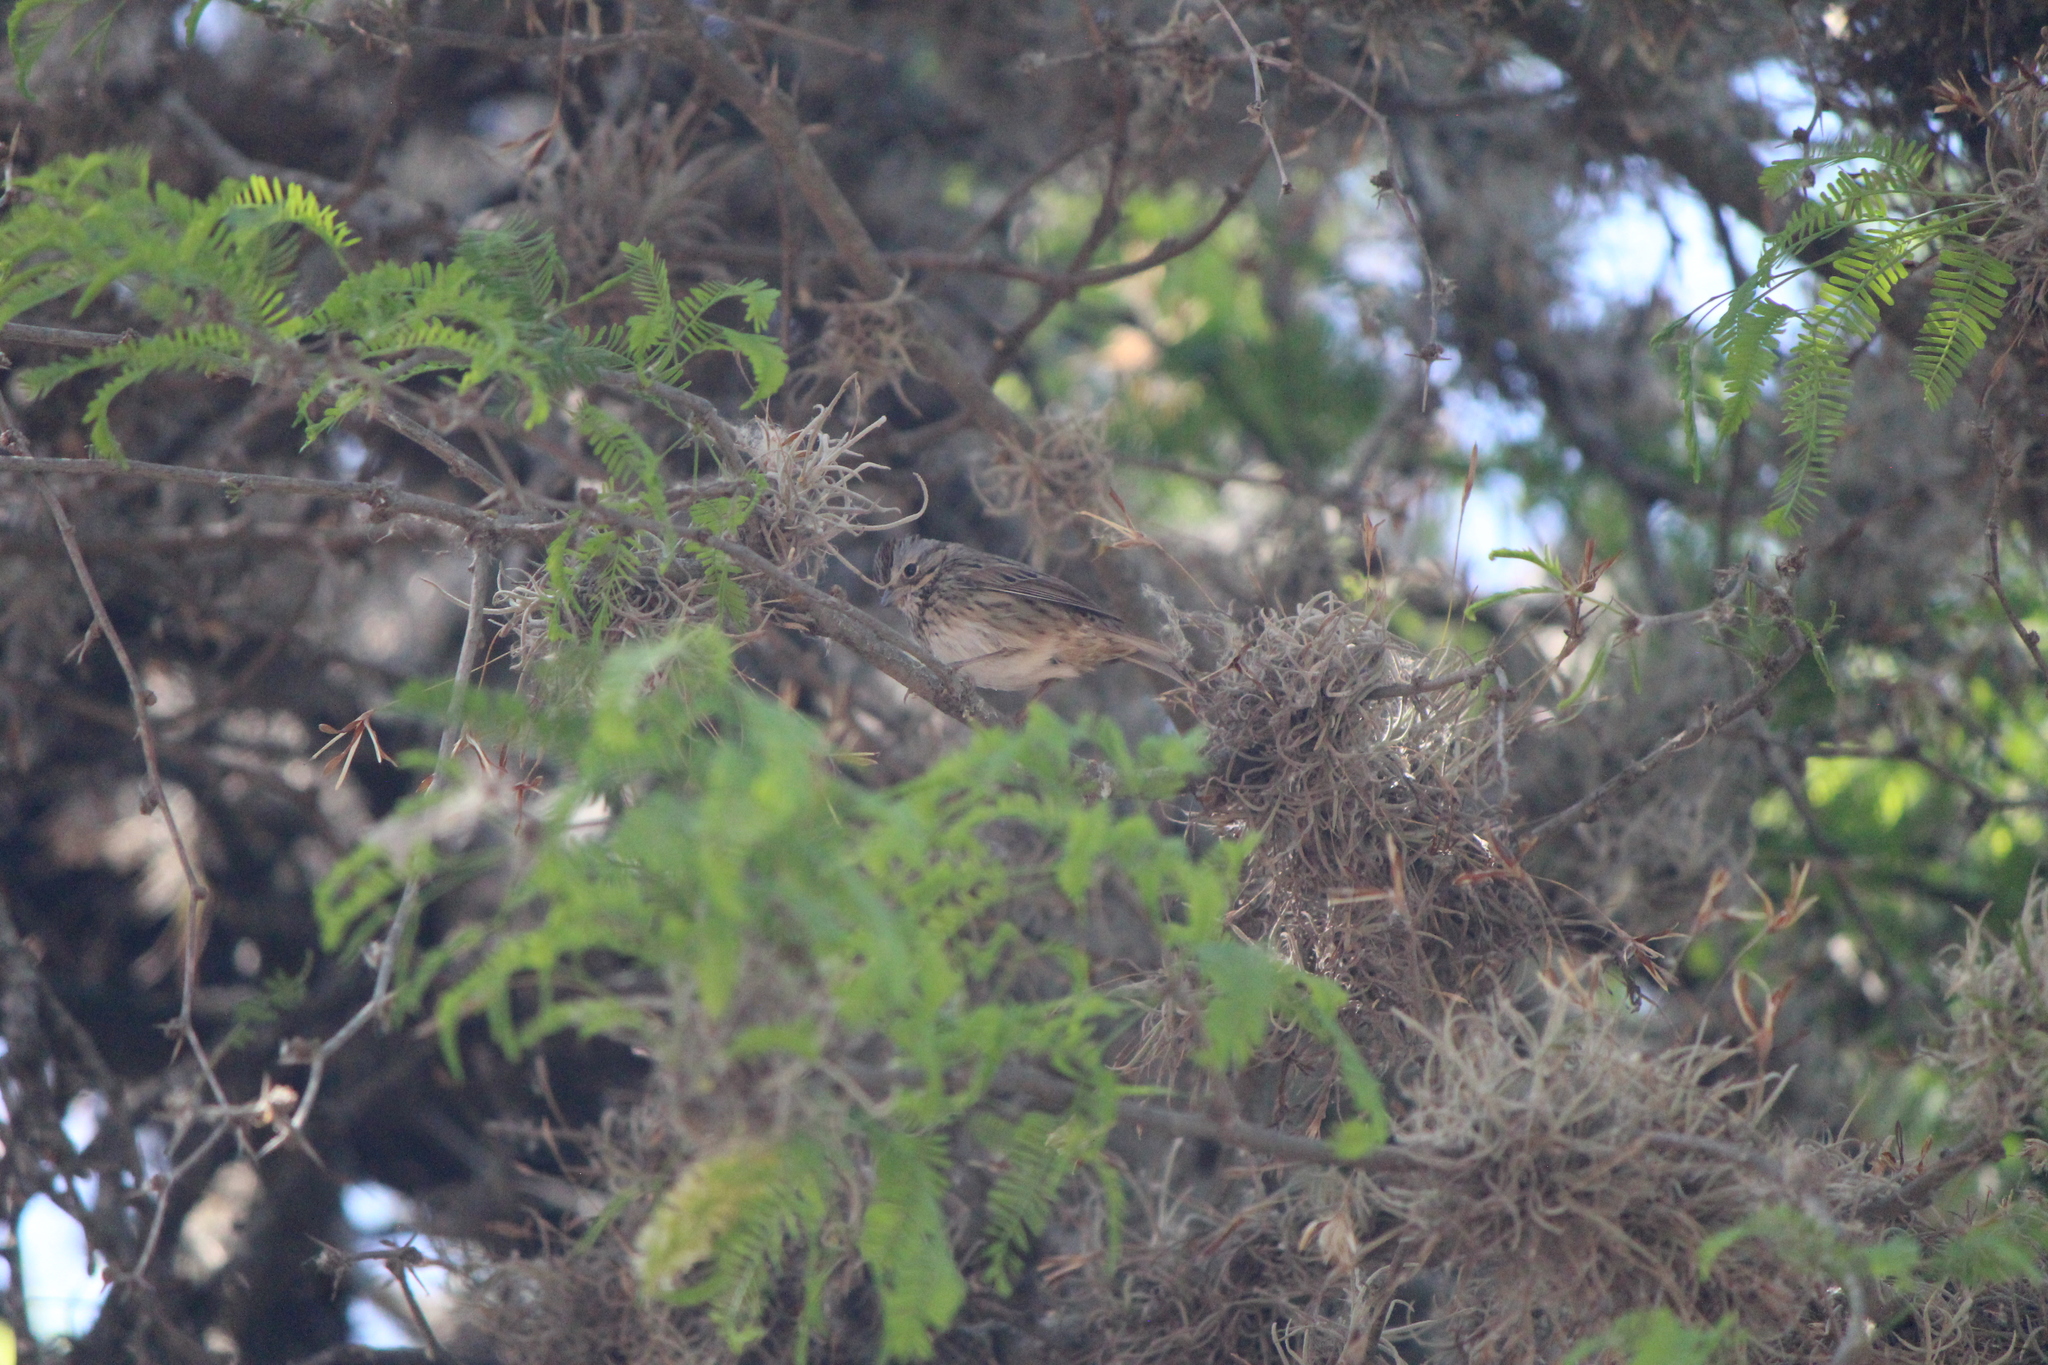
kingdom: Animalia
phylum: Chordata
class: Aves
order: Passeriformes
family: Passerellidae
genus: Melospiza
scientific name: Melospiza lincolnii
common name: Lincoln's sparrow
